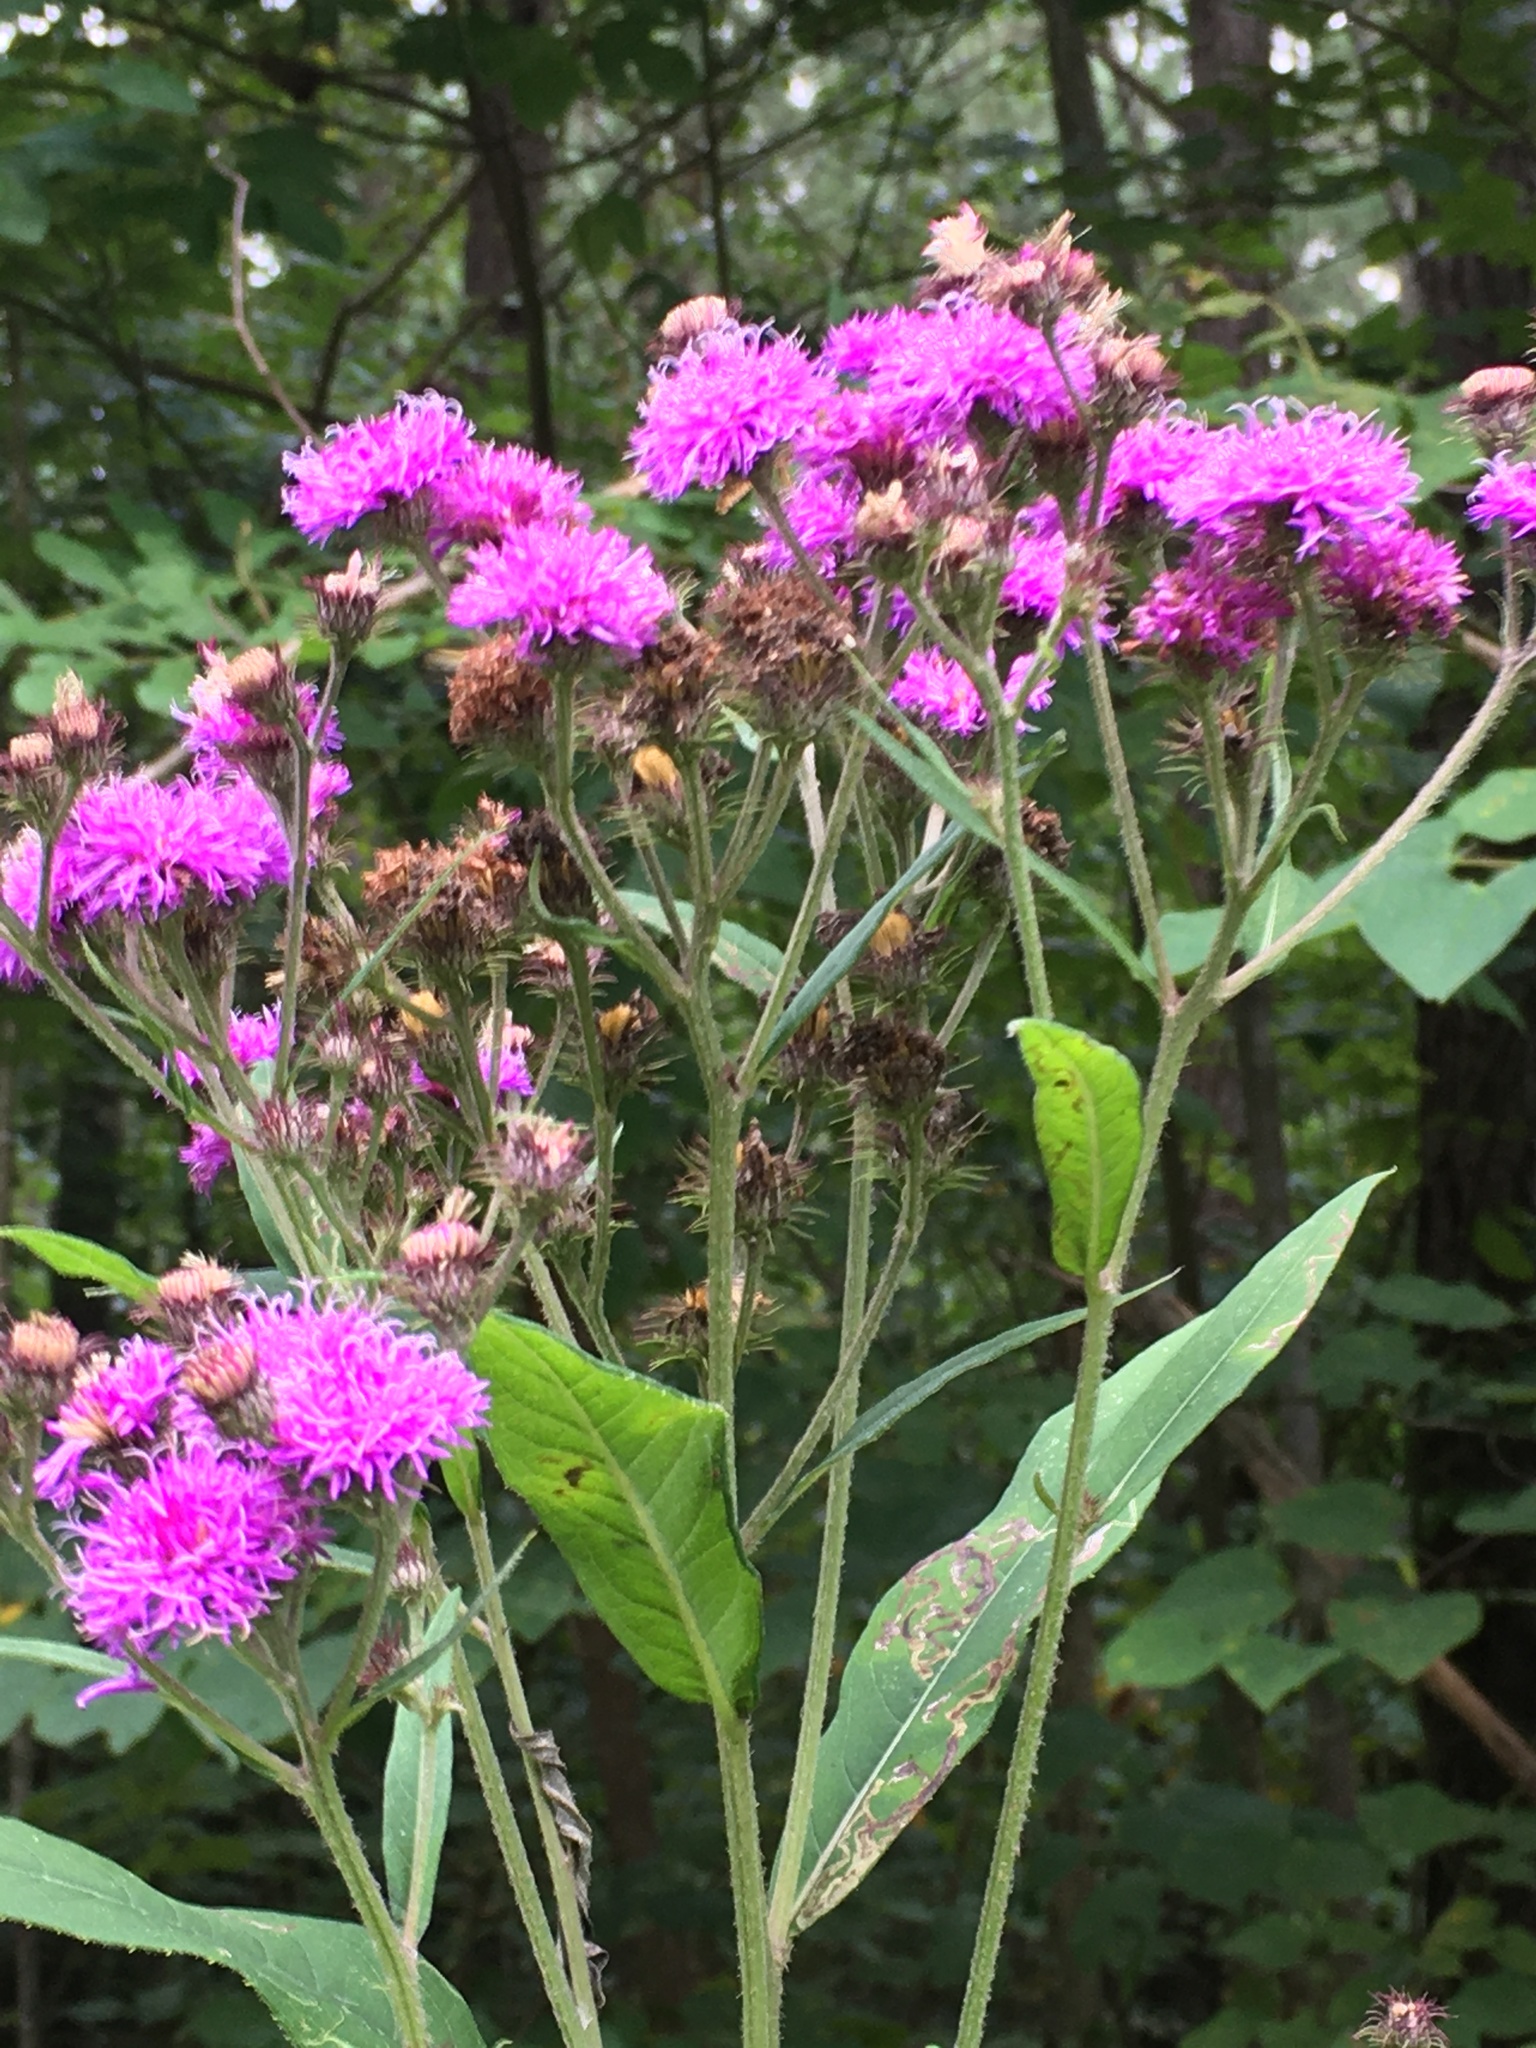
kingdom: Plantae
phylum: Tracheophyta
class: Magnoliopsida
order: Asterales
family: Asteraceae
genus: Vernonia
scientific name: Vernonia noveboracensis
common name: New york ironweed
